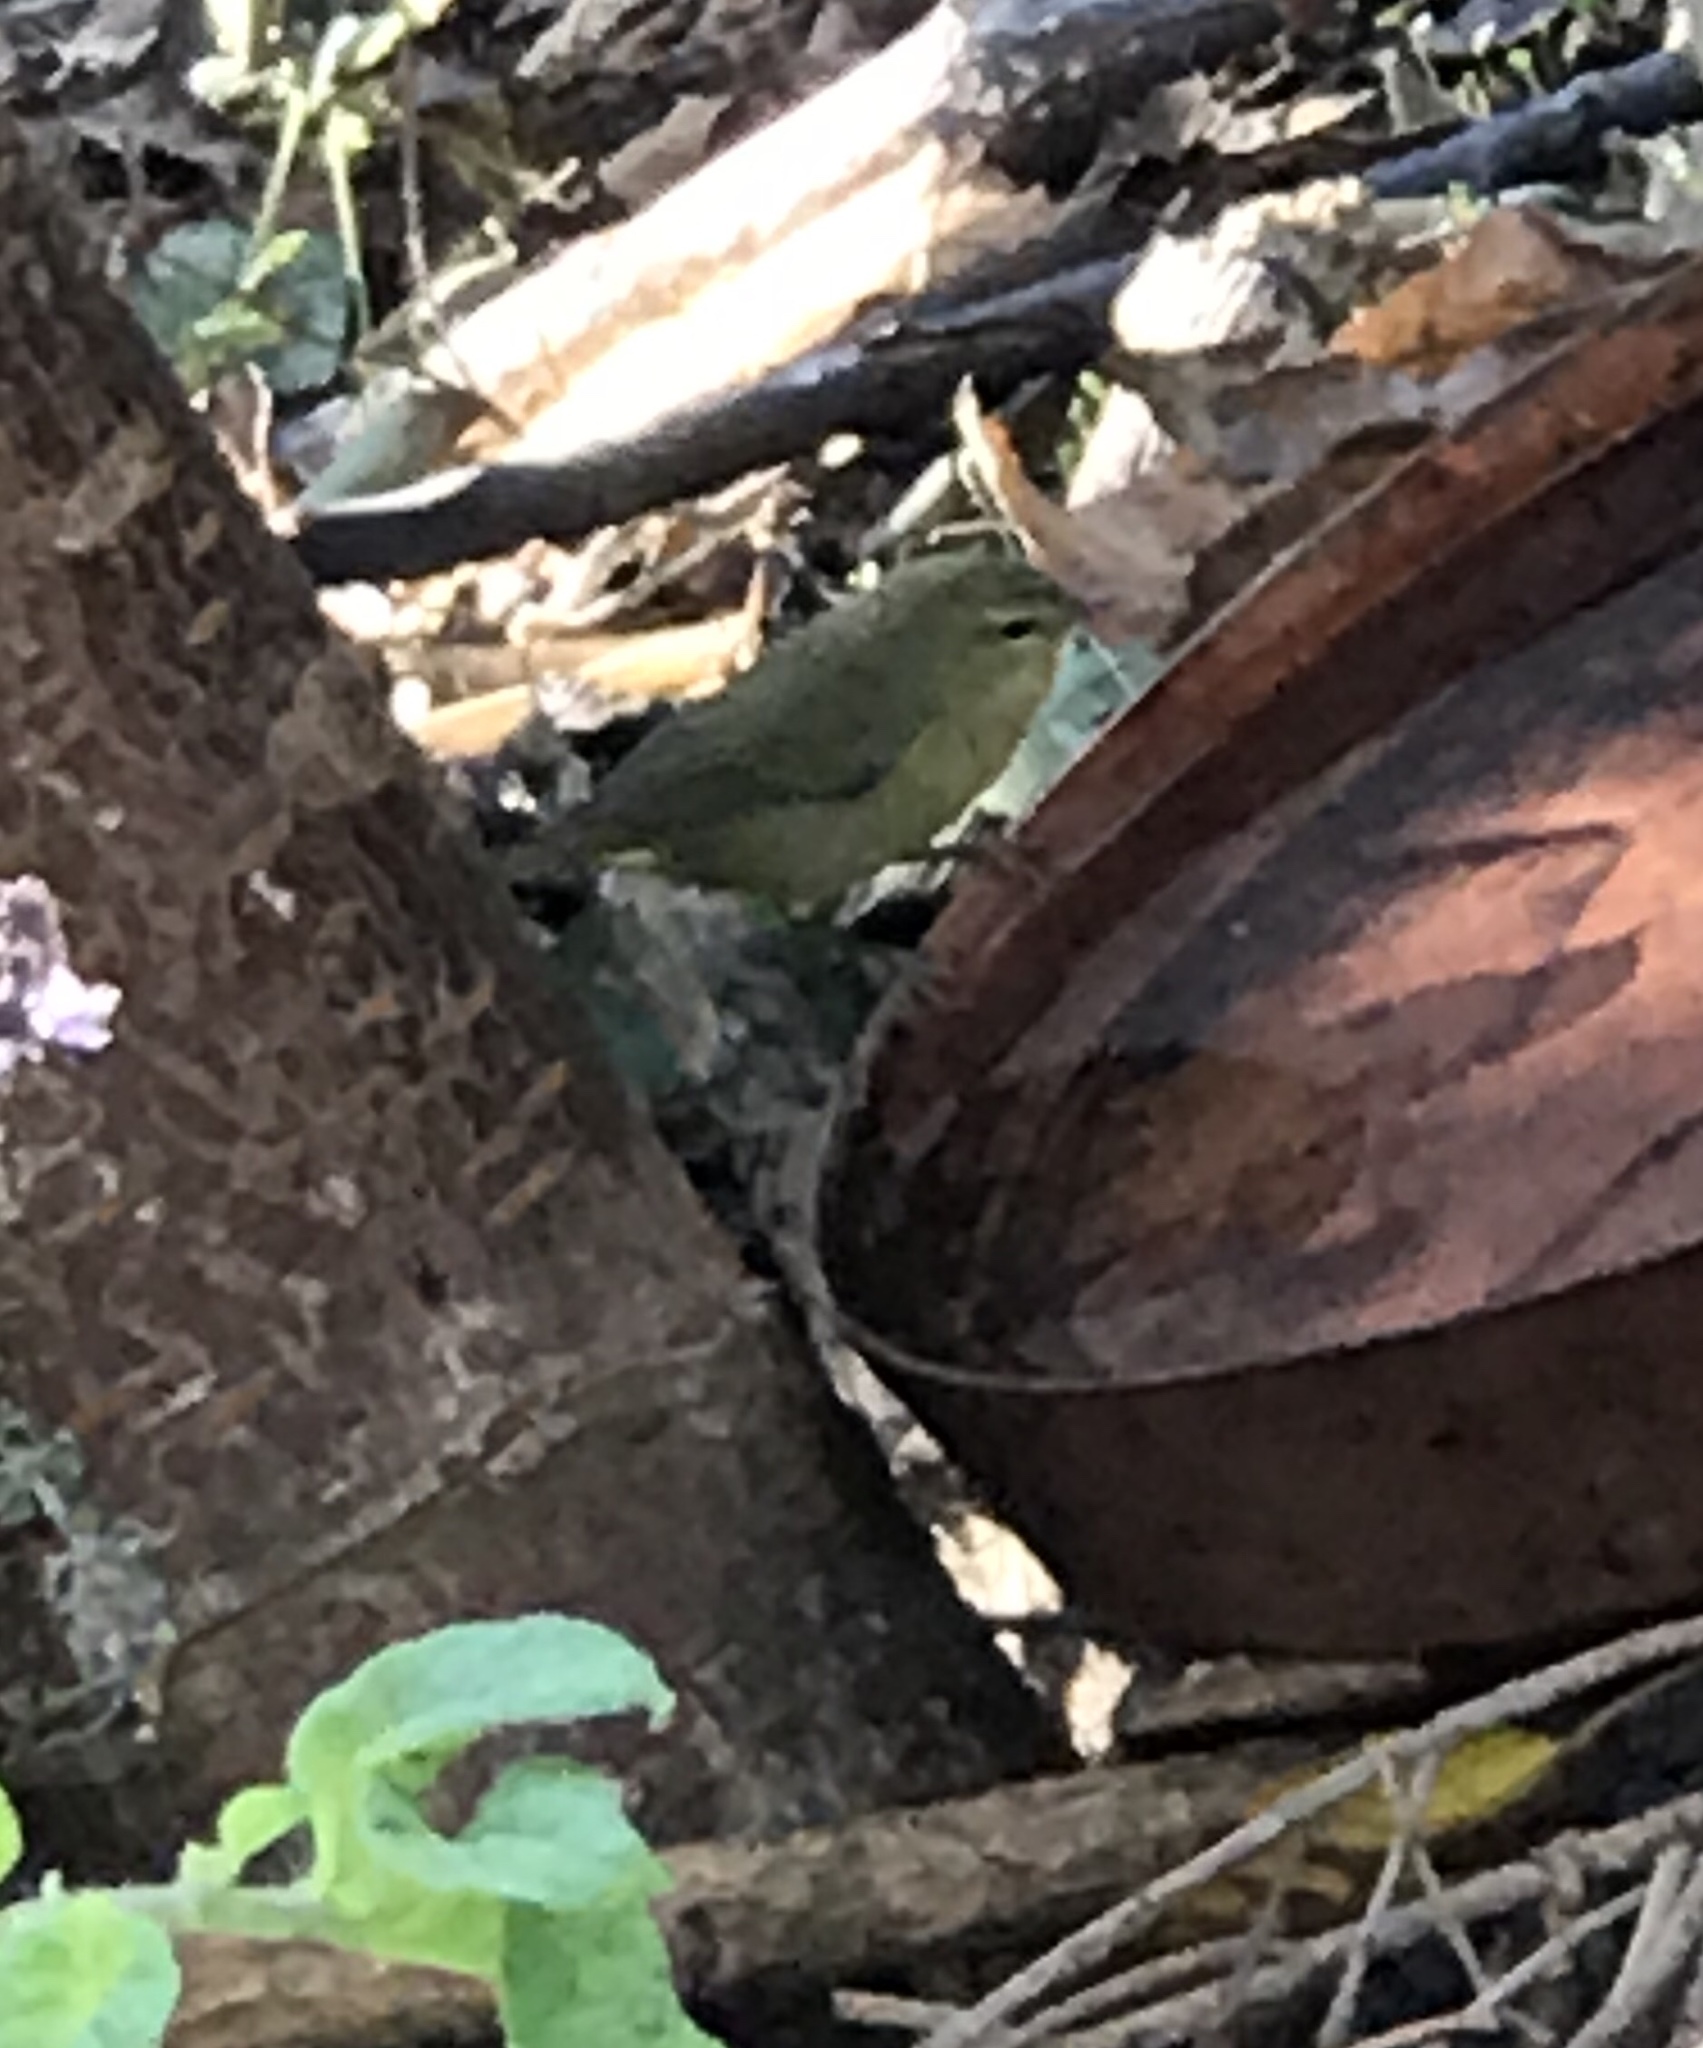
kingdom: Animalia
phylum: Chordata
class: Aves
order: Passeriformes
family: Parulidae
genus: Leiothlypis
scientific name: Leiothlypis celata
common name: Orange-crowned warbler
